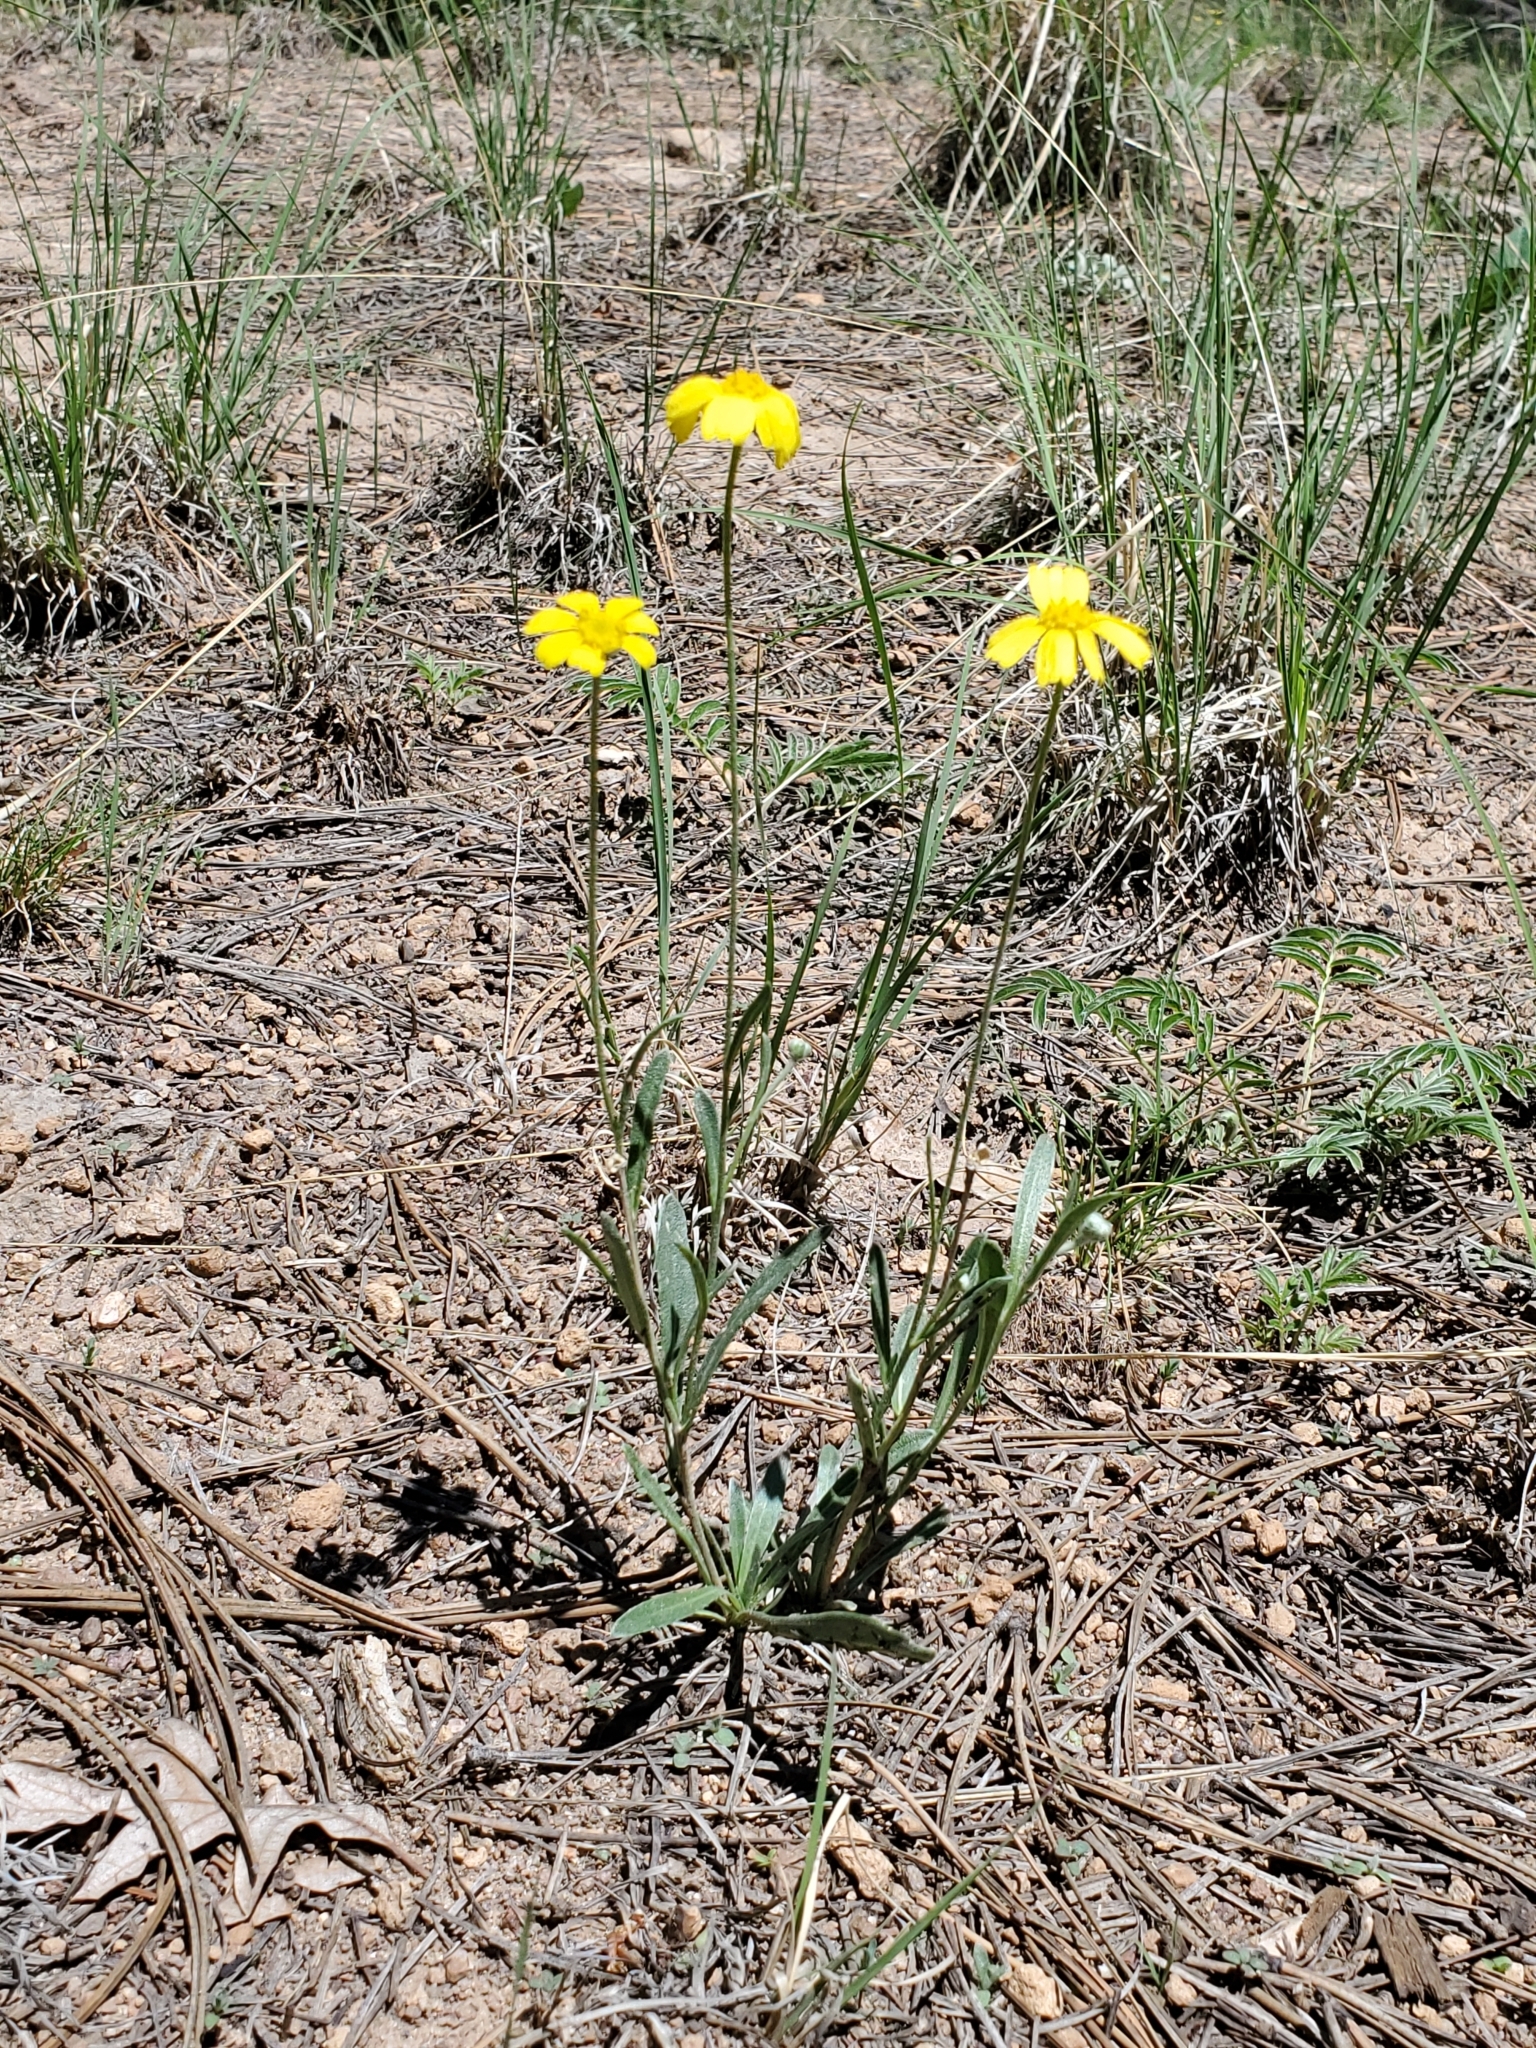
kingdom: Plantae
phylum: Tracheophyta
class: Magnoliopsida
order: Asterales
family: Asteraceae
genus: Tetraneuris
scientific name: Tetraneuris argentea
